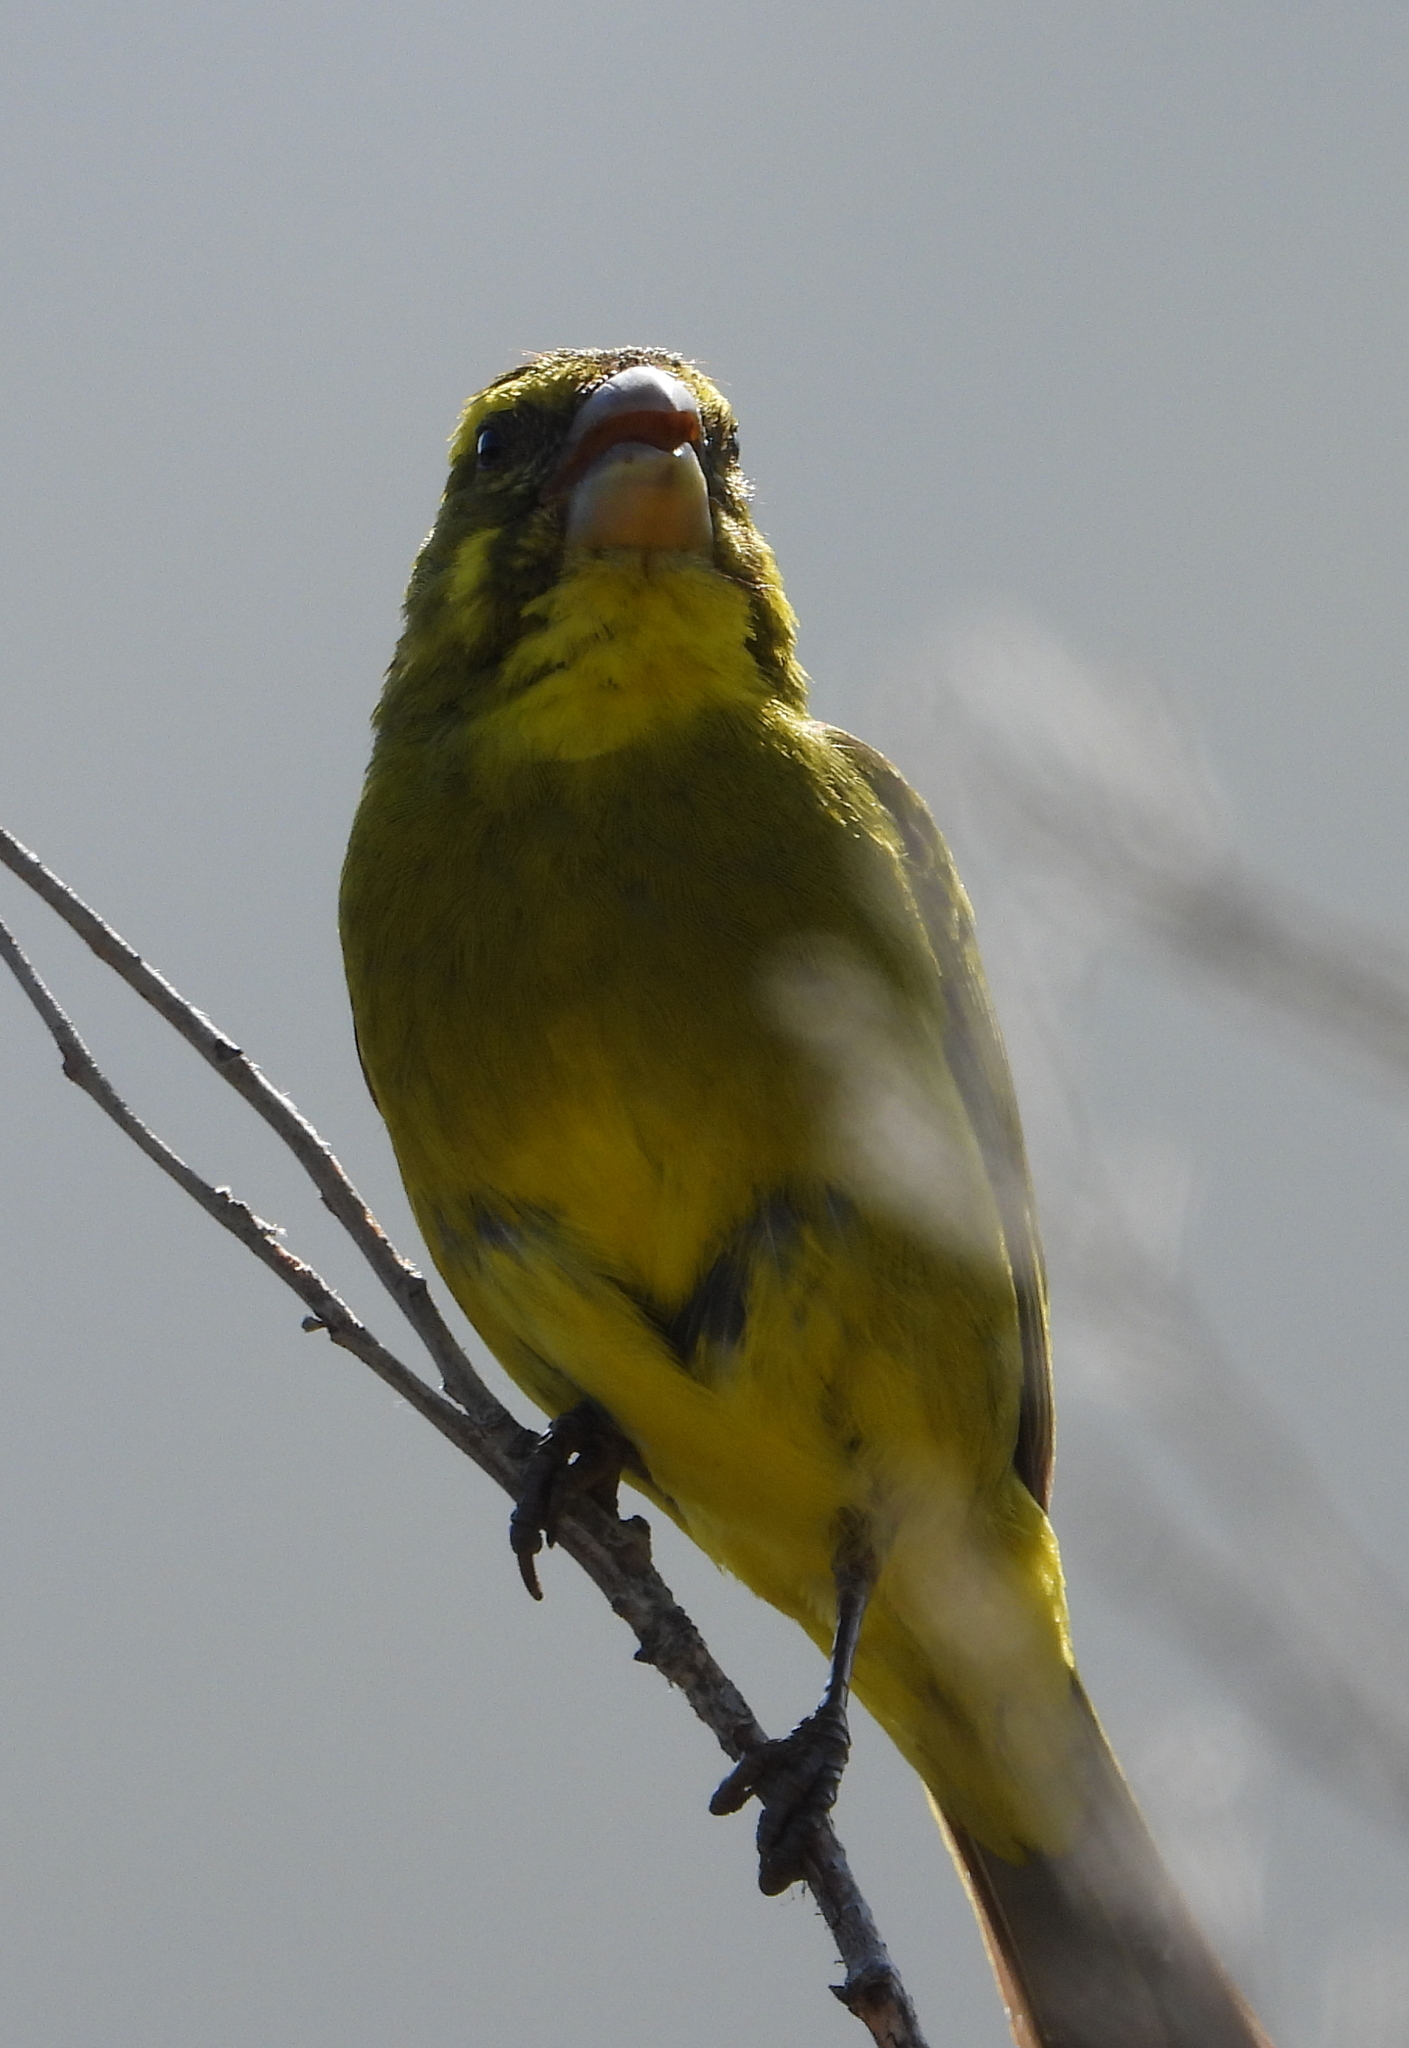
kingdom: Animalia
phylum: Chordata
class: Aves
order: Passeriformes
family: Fringillidae
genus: Crithagra
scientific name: Crithagra sulphurata
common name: Brimstone canary
